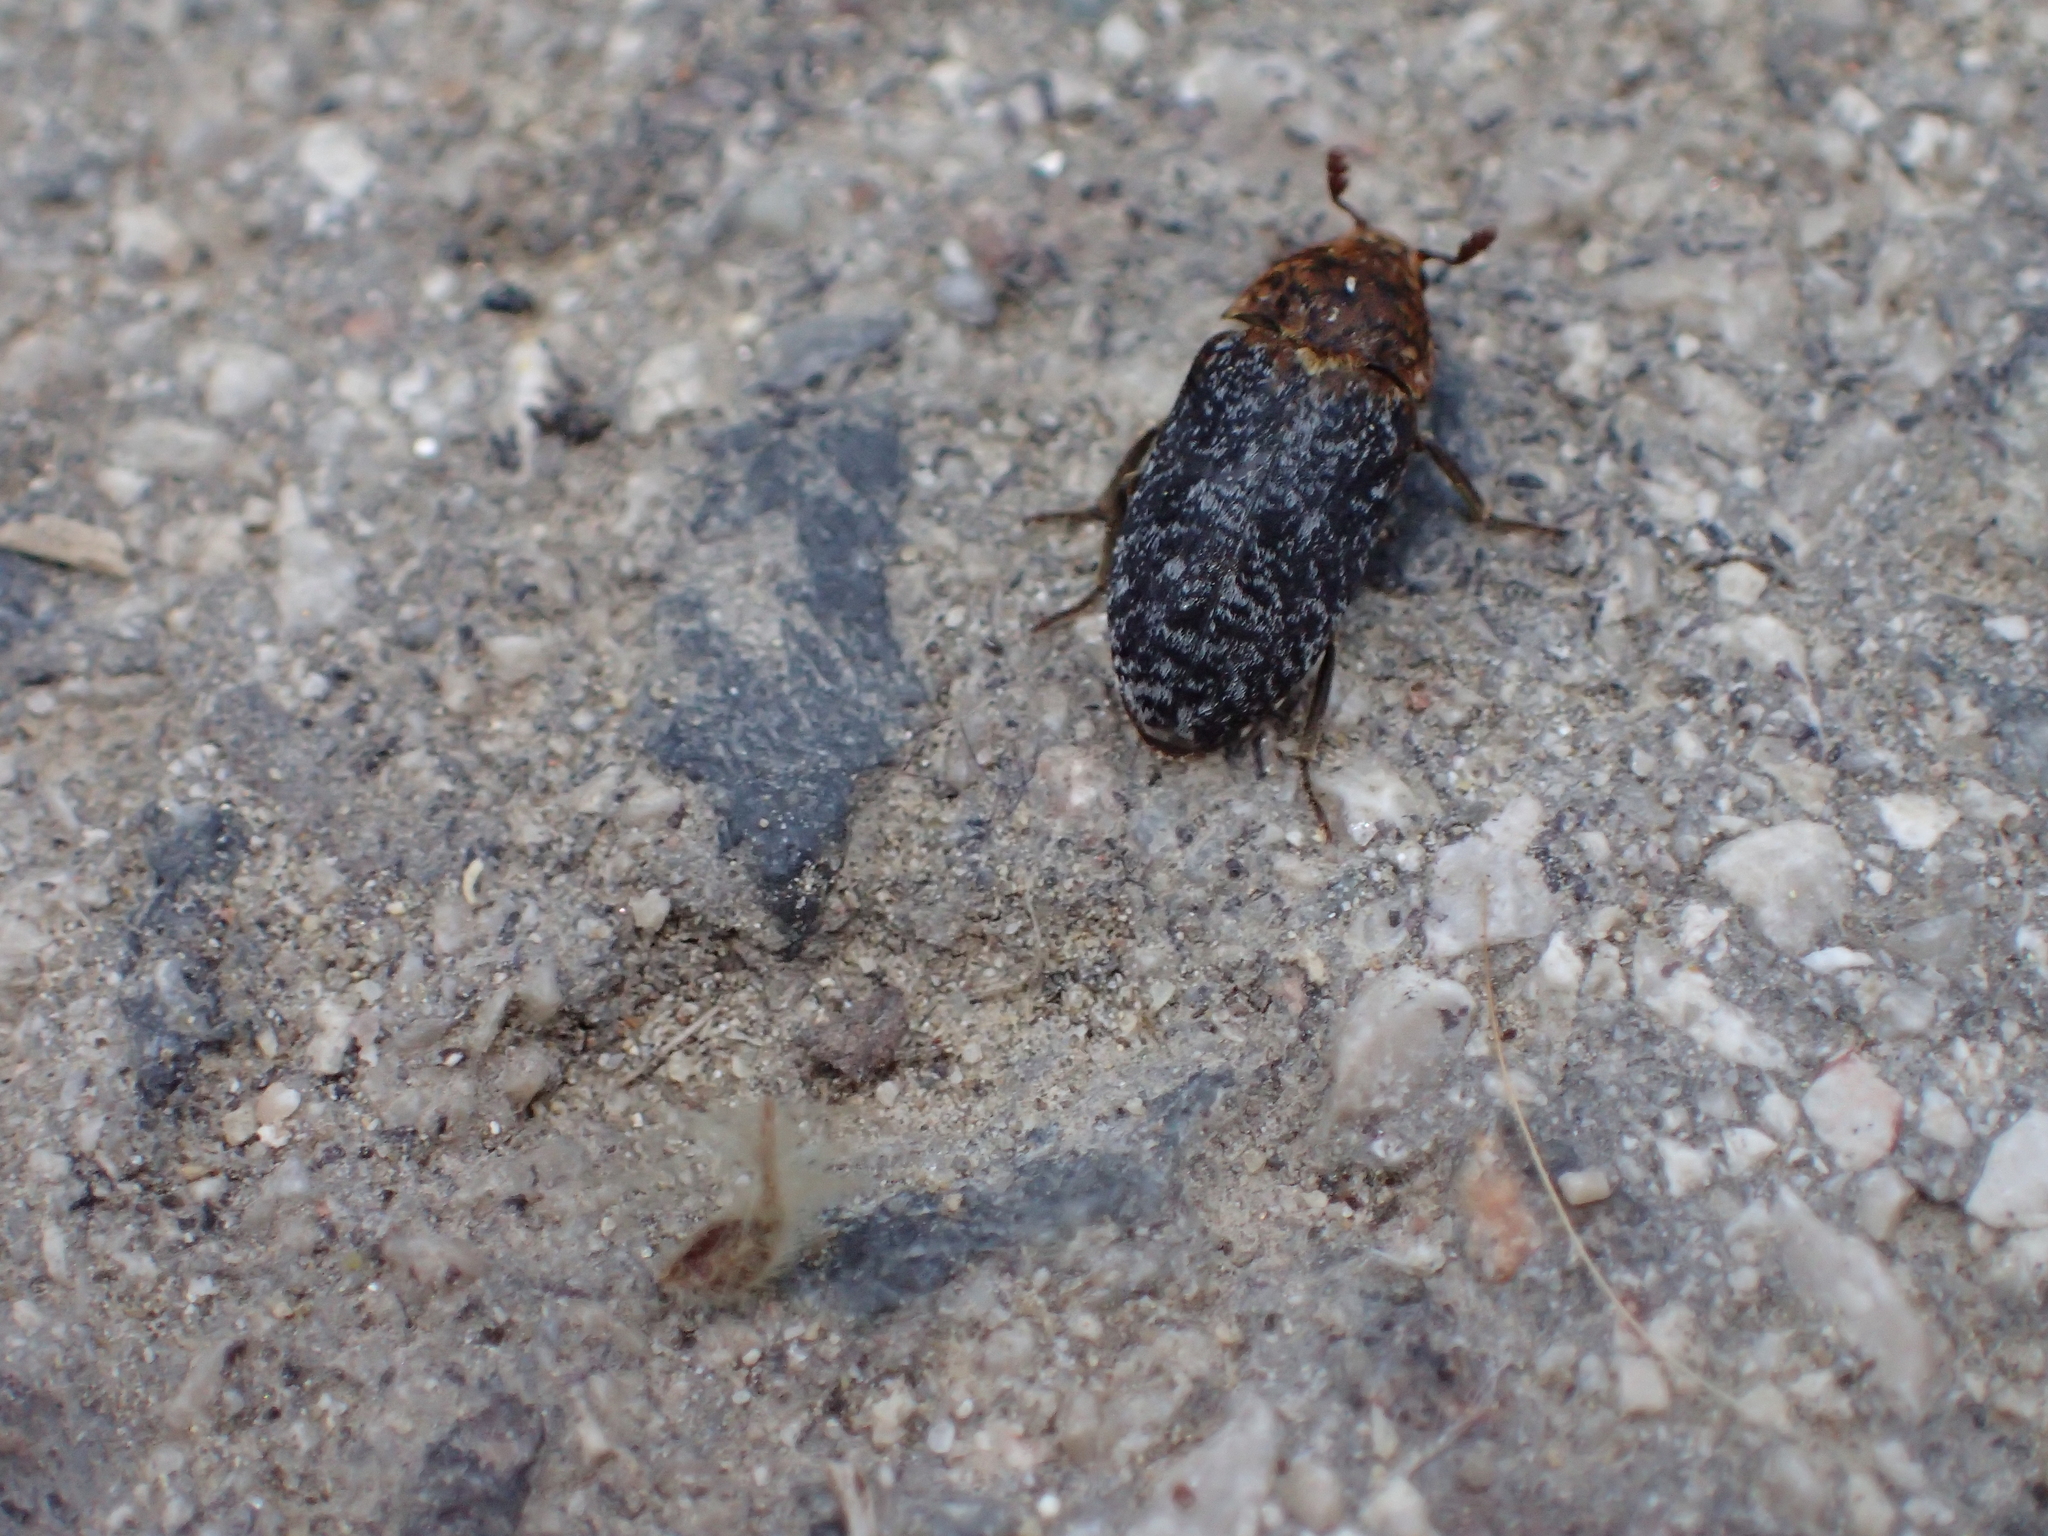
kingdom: Animalia
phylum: Arthropoda
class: Insecta
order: Coleoptera
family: Dermestidae
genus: Dermestes
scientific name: Dermestes undulatus
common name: Wavy carpet beetle
